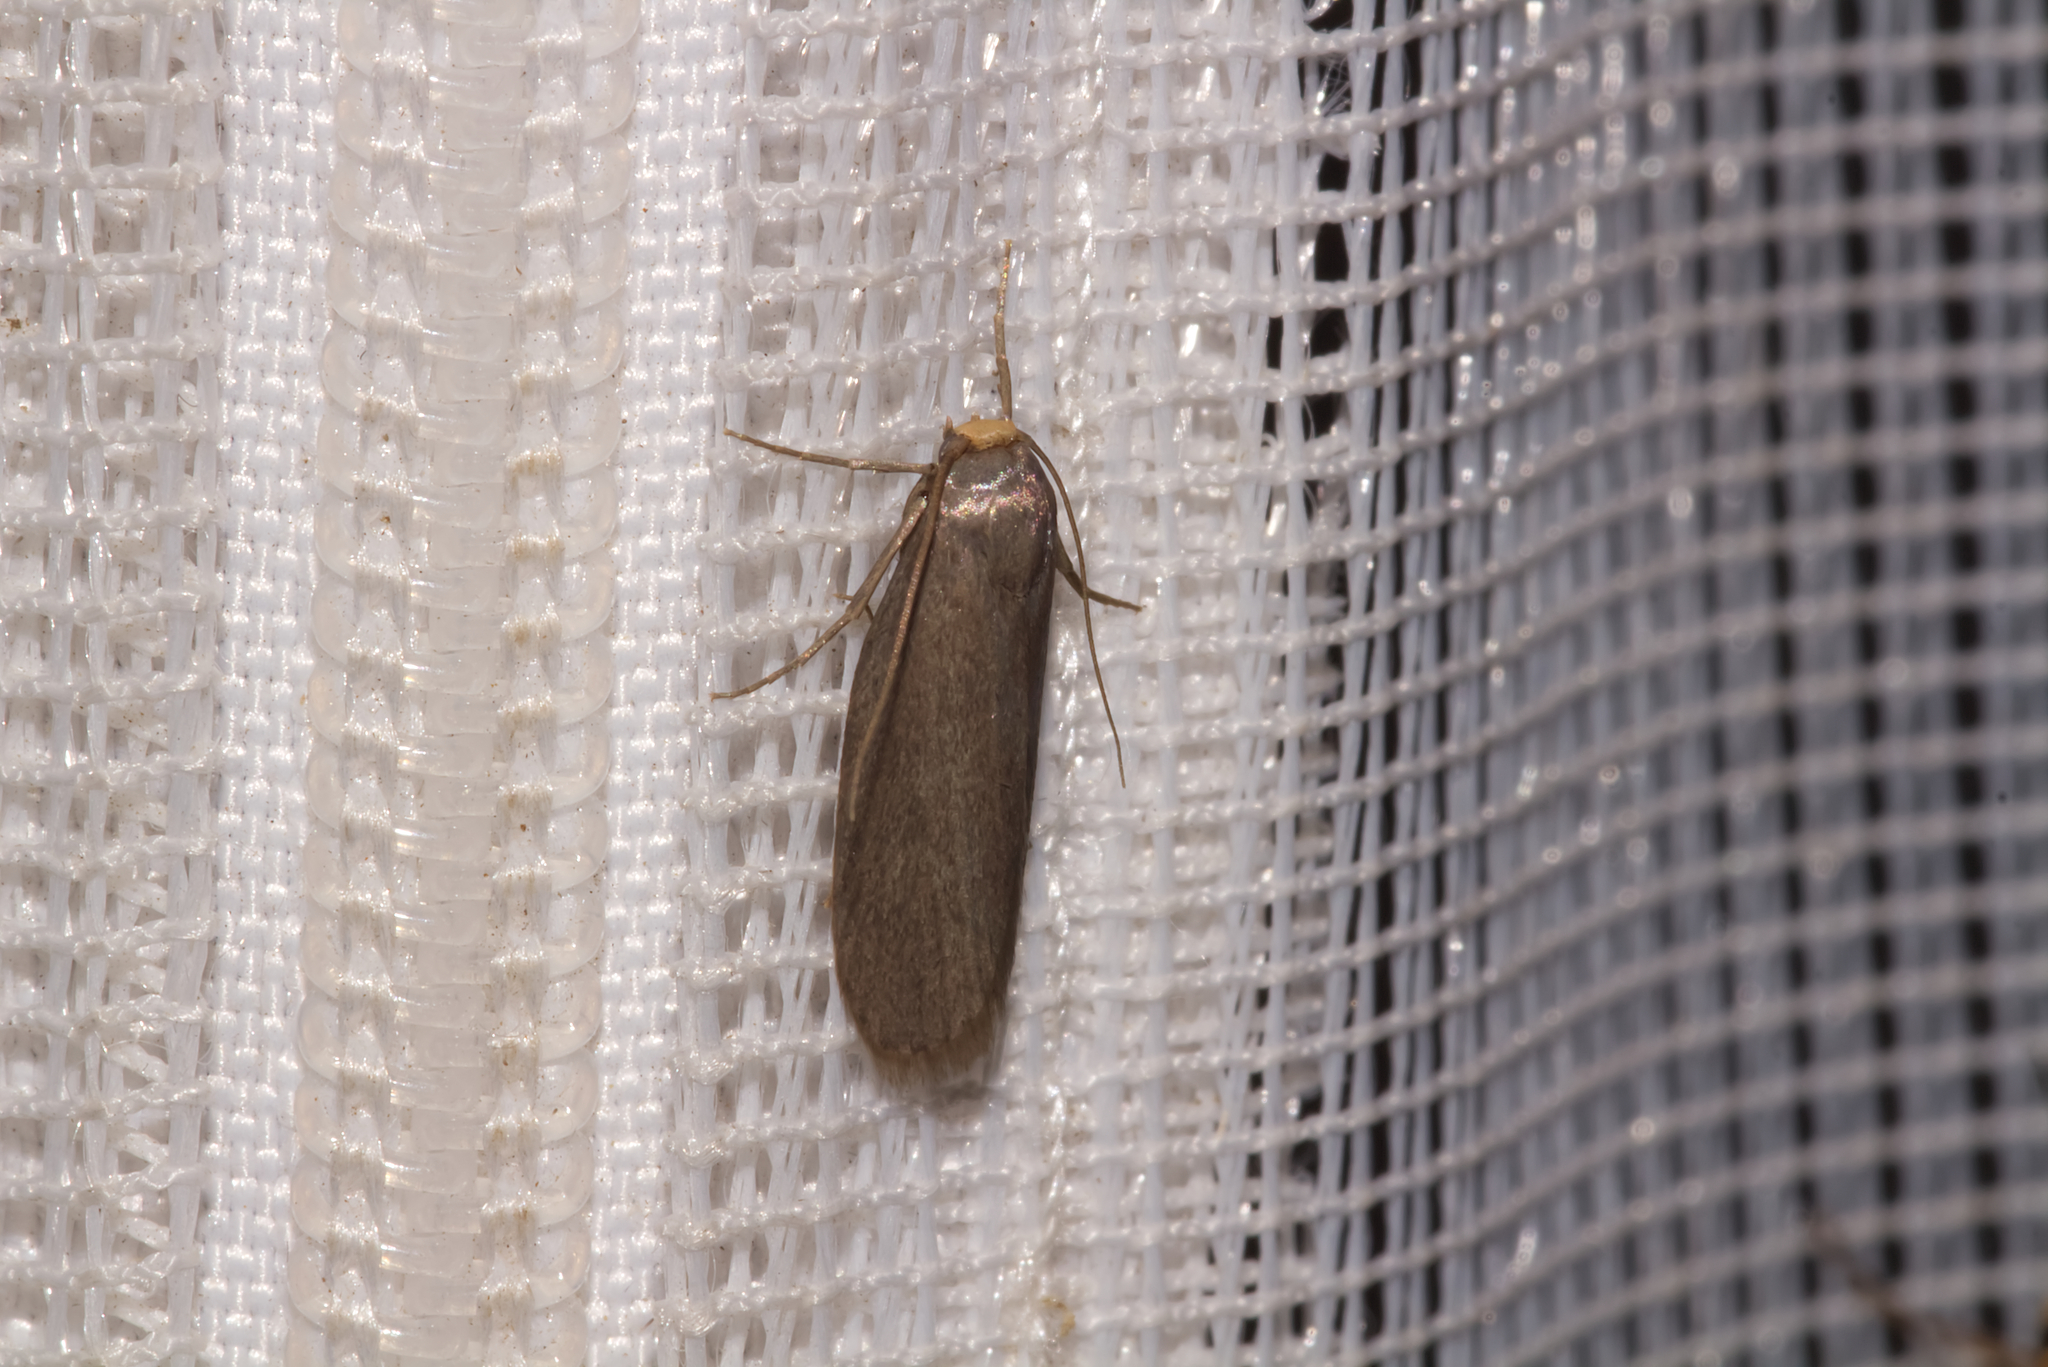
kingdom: Animalia
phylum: Arthropoda
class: Insecta
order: Lepidoptera
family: Pyralidae
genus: Achroia
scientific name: Achroia grisella
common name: Lesser wax moth
